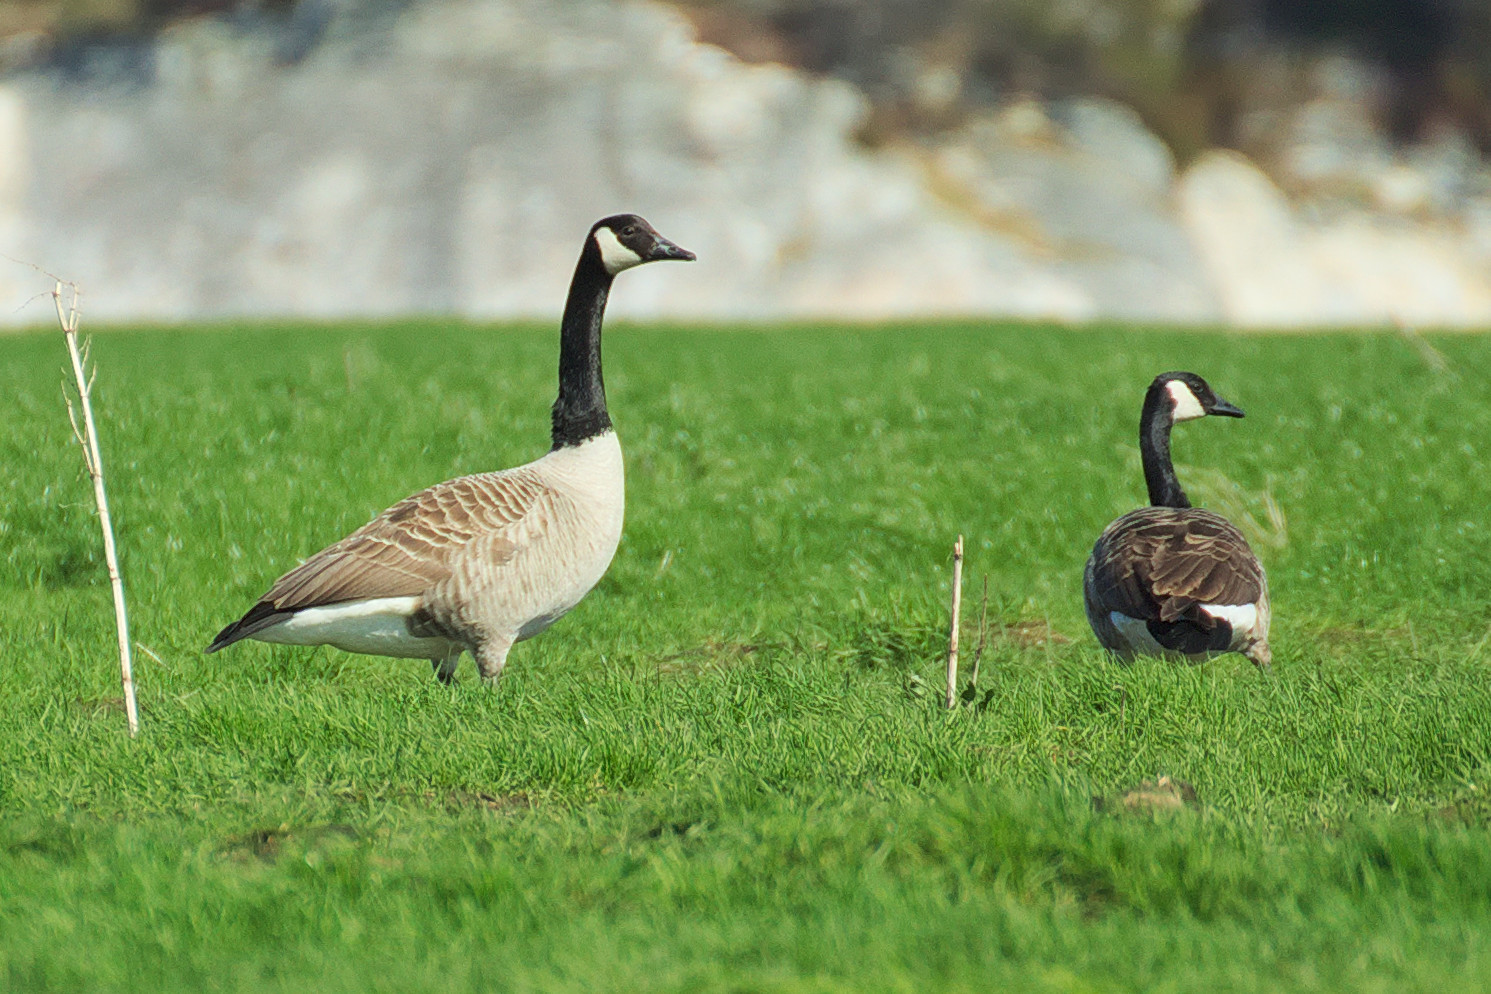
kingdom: Animalia
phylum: Chordata
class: Aves
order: Anseriformes
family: Anatidae
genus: Branta
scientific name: Branta canadensis
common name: Canada goose
